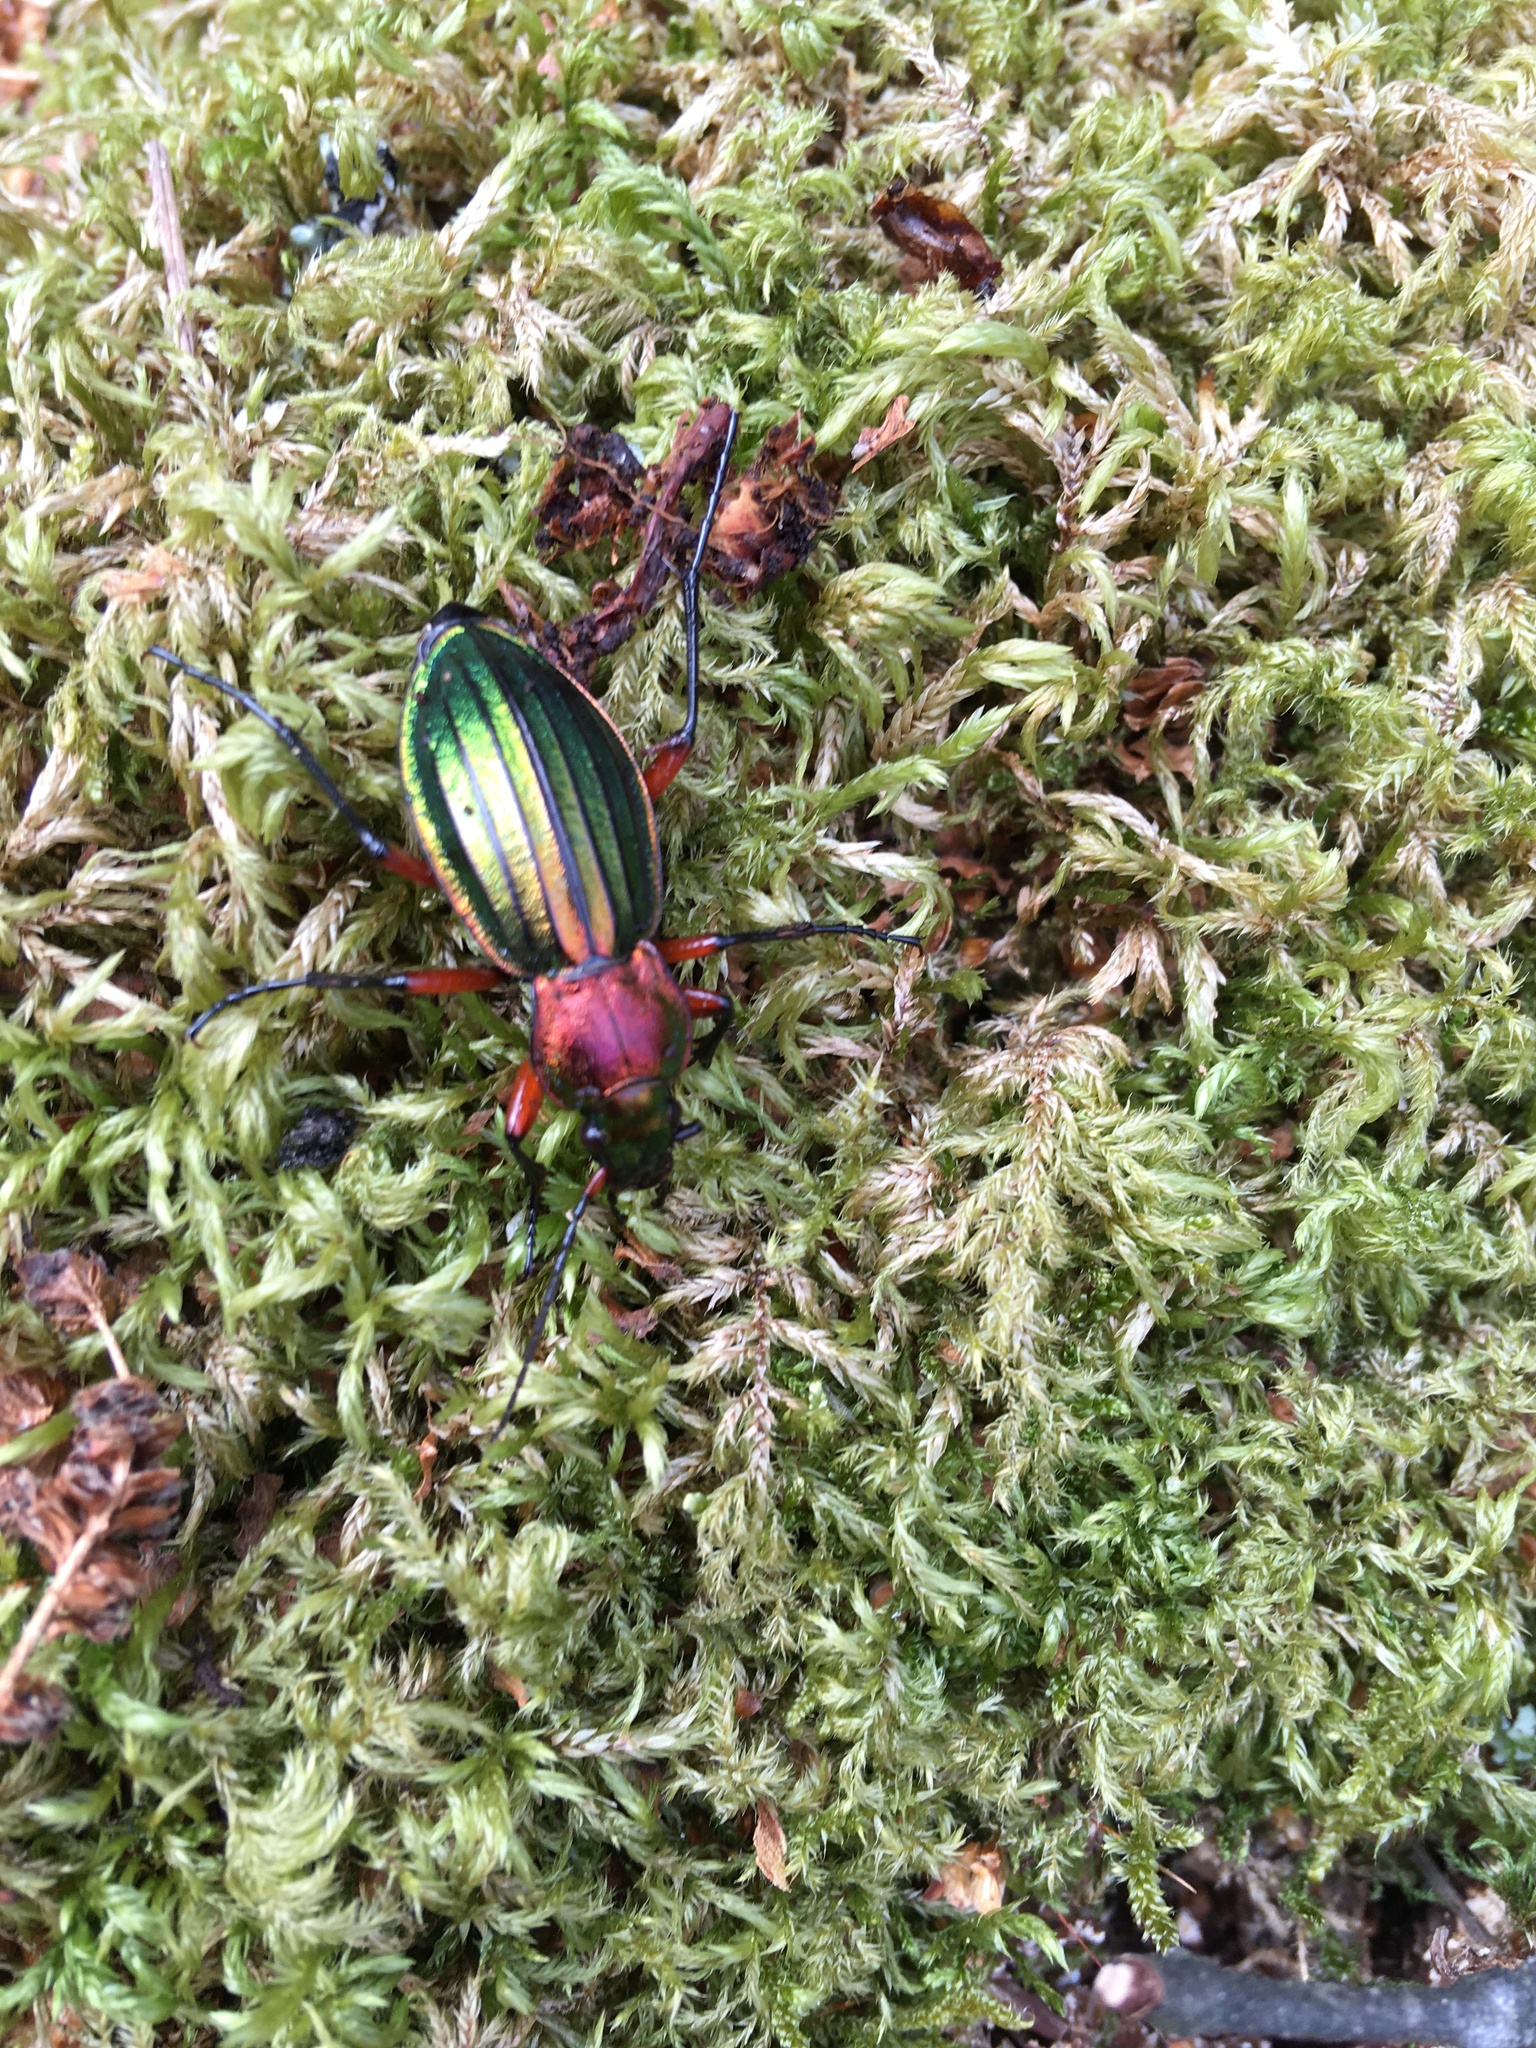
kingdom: Animalia
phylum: Arthropoda
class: Insecta
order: Coleoptera
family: Carabidae
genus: Carabus
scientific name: Carabus auronitens
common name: Carabus auronitens
